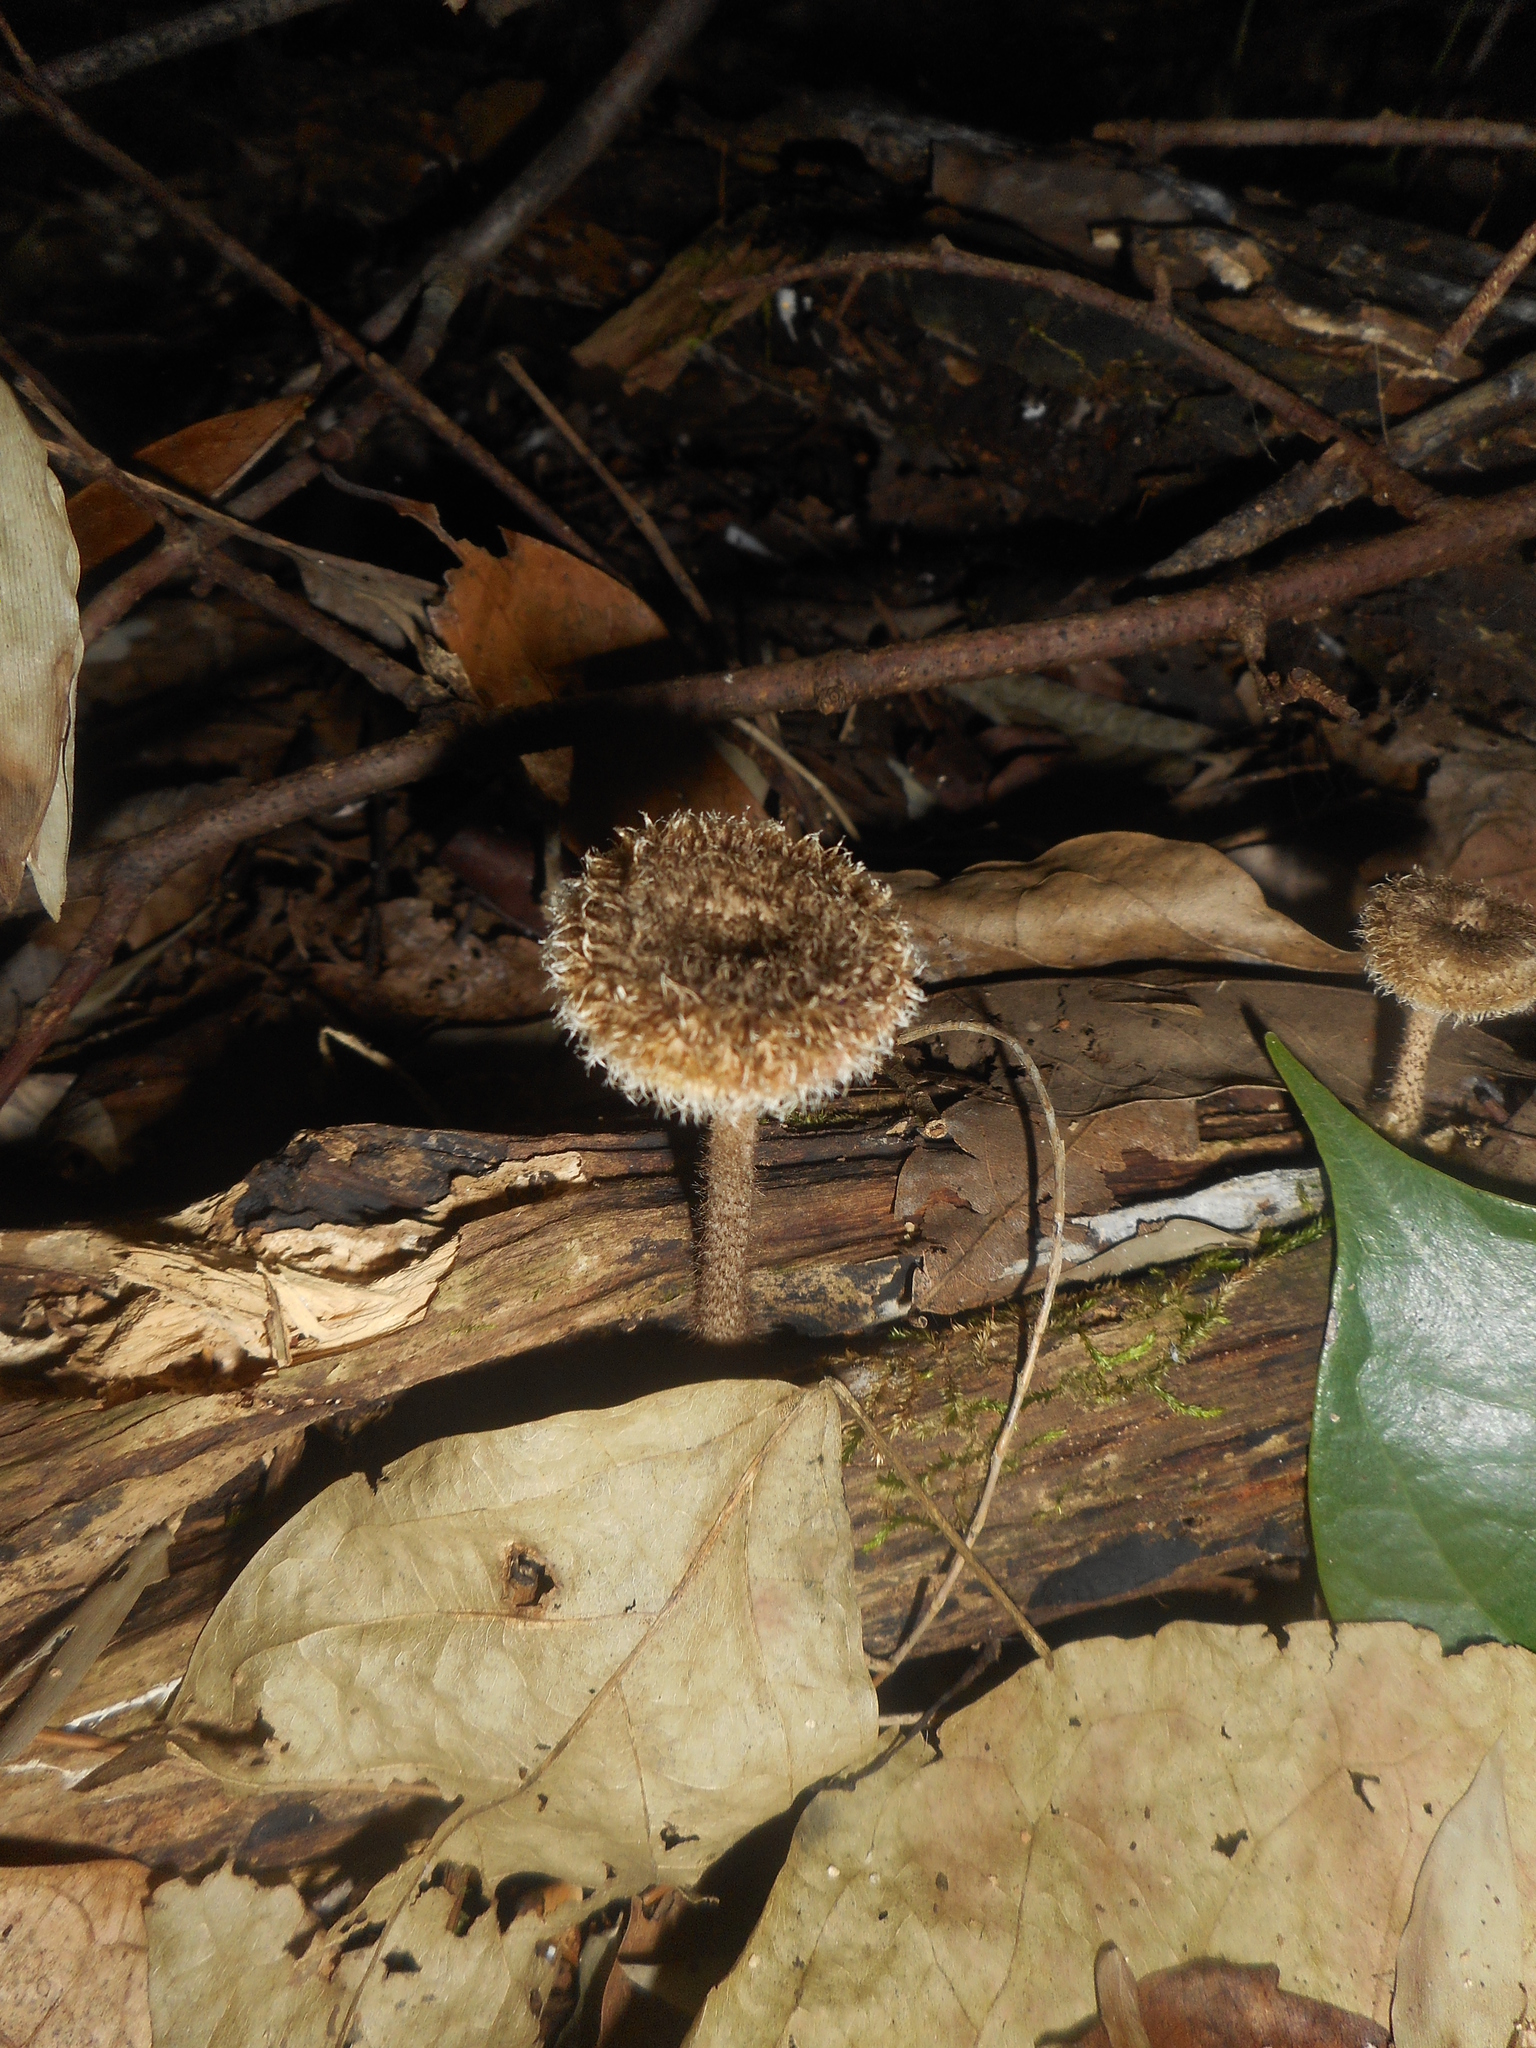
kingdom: Fungi
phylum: Basidiomycota
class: Agaricomycetes
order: Polyporales
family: Polyporaceae
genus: Lentinus
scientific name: Lentinus crinitus
